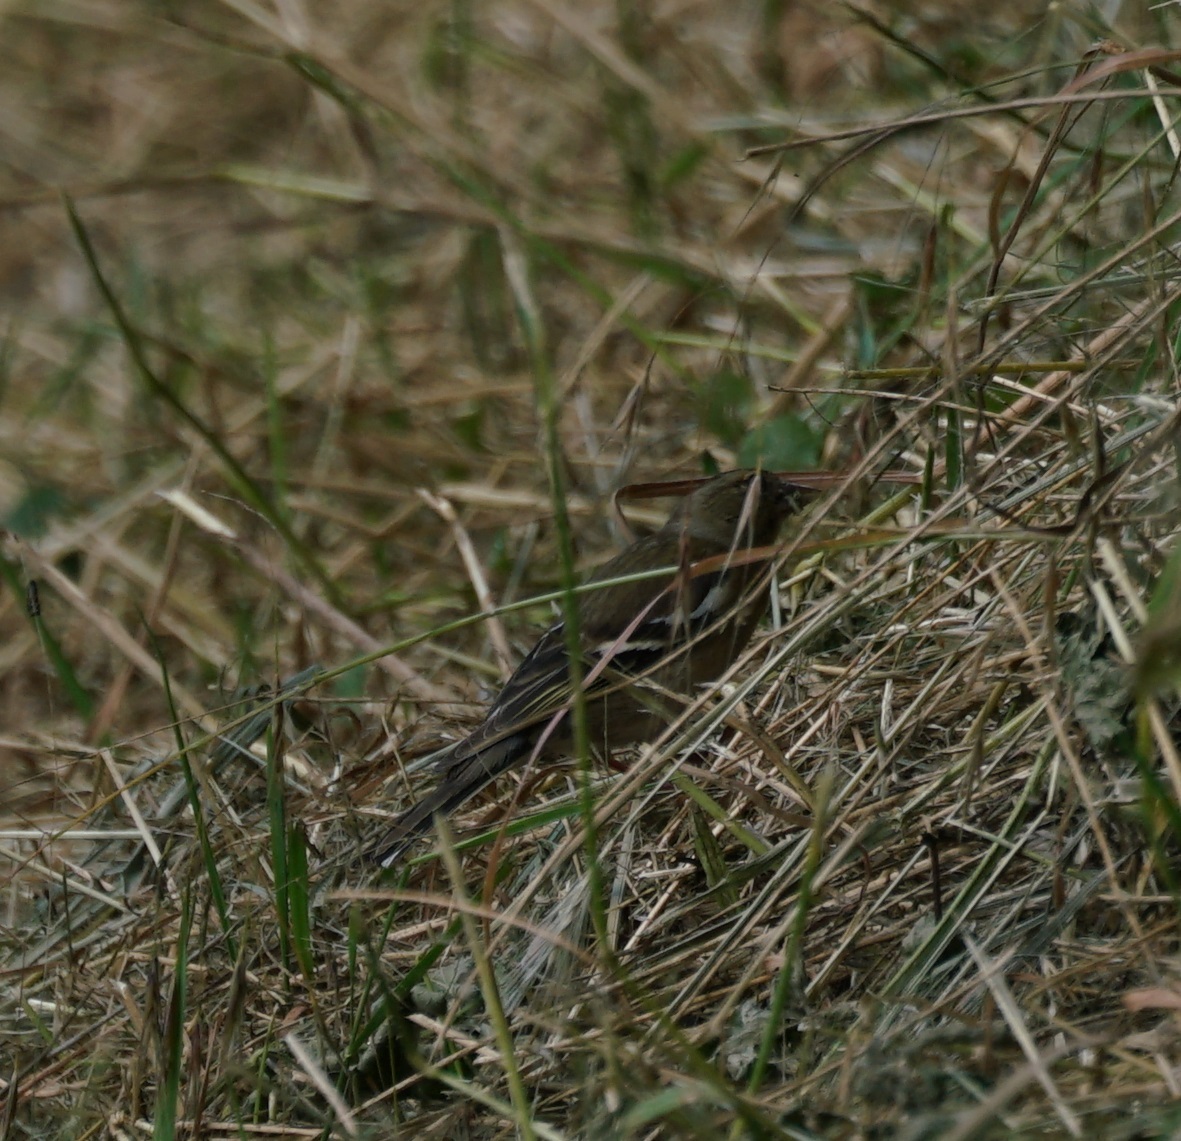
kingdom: Animalia
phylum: Chordata
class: Aves
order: Passeriformes
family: Fringillidae
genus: Fringilla
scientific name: Fringilla coelebs
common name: Common chaffinch
